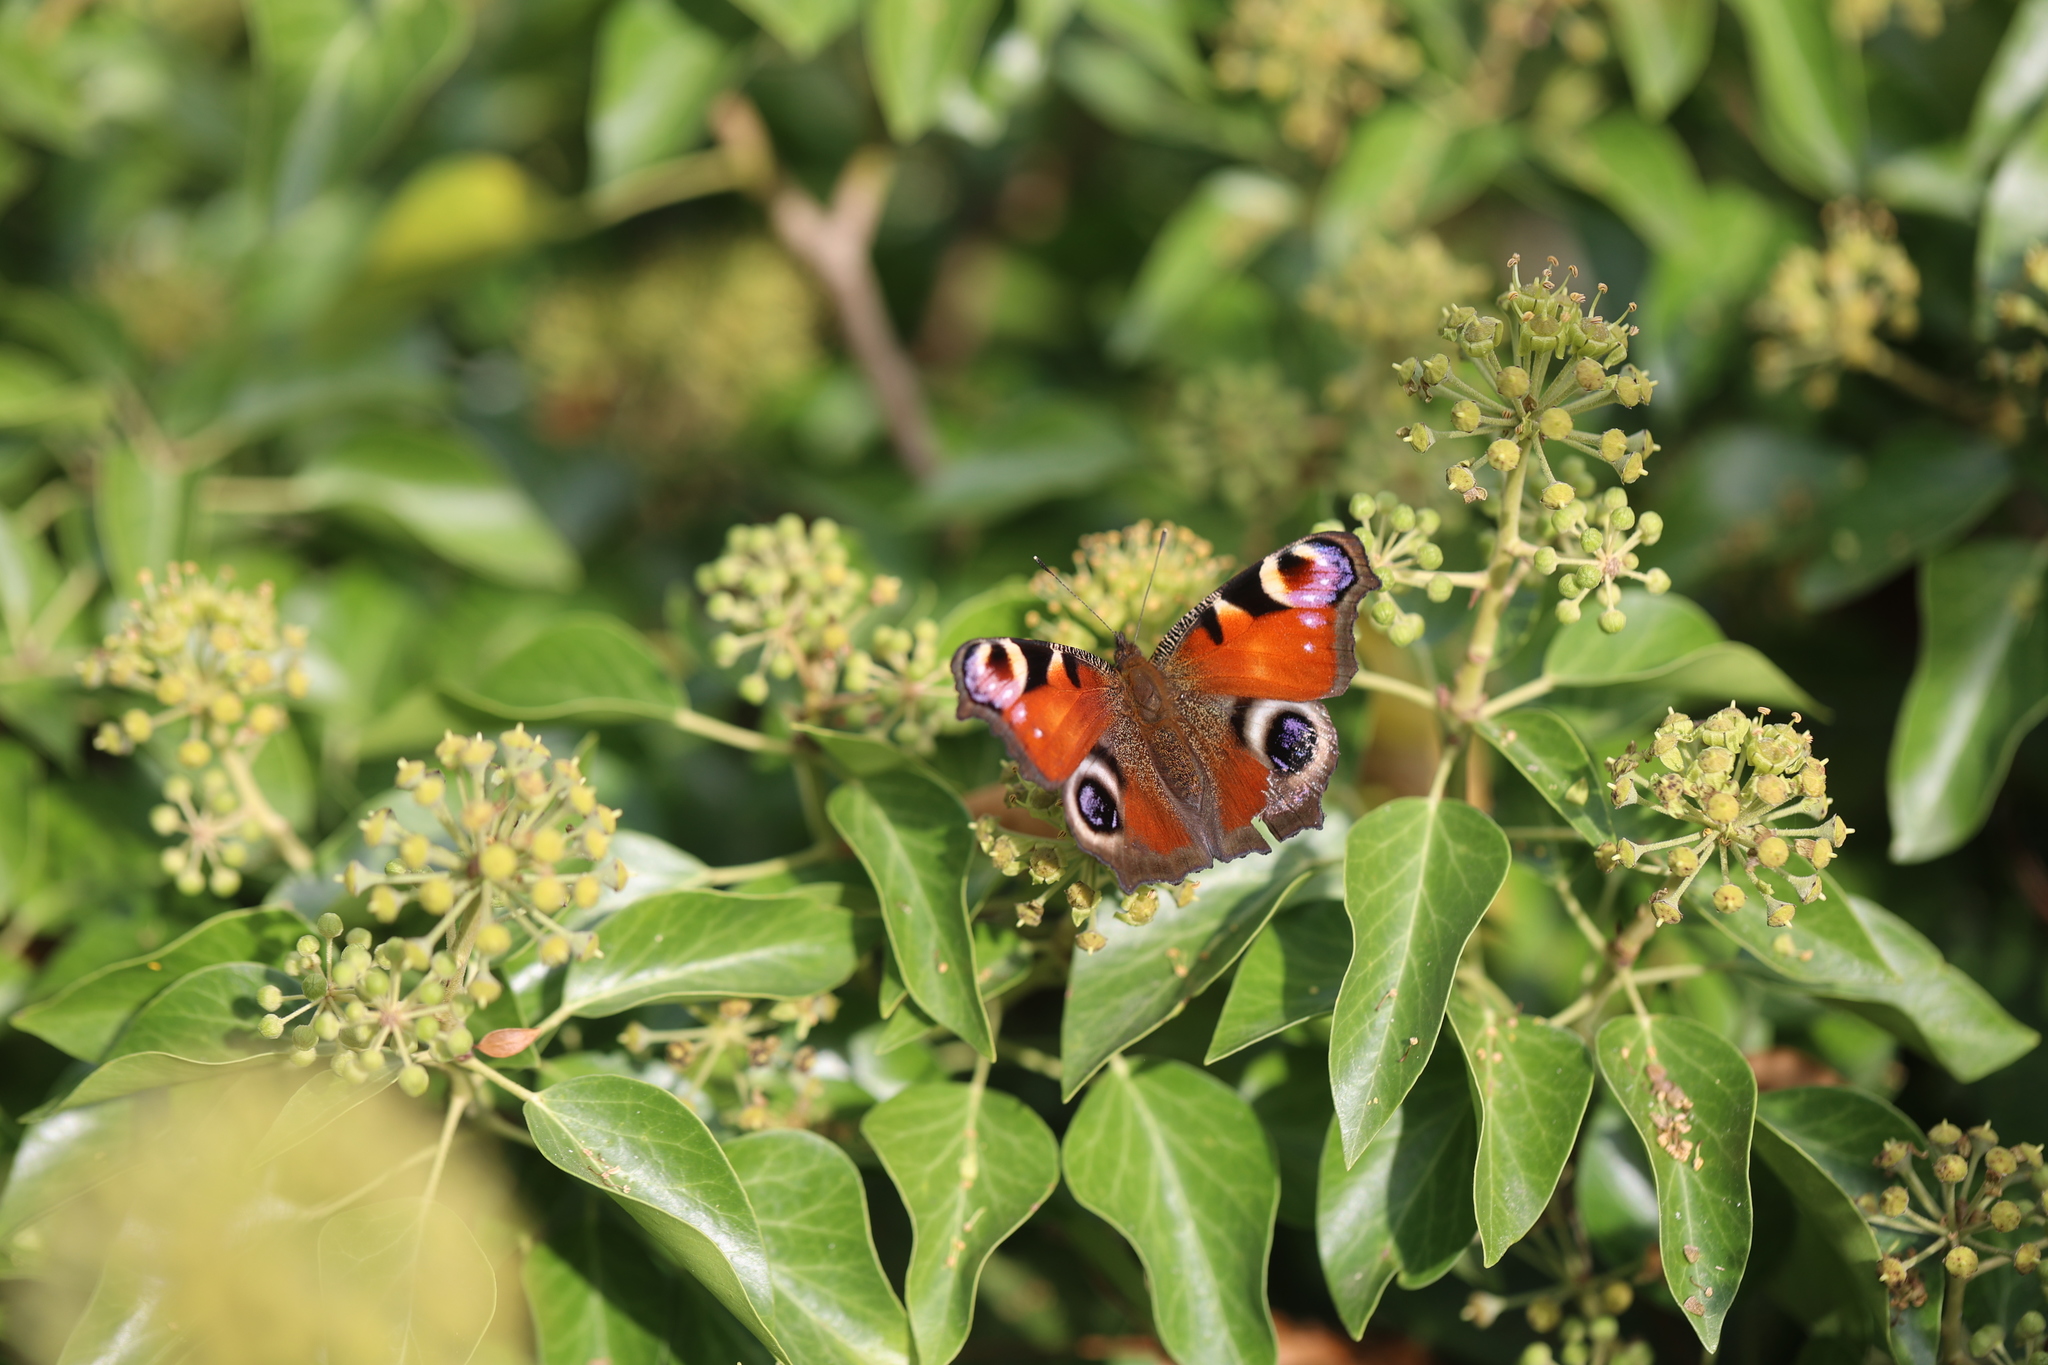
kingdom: Animalia
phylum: Arthropoda
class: Insecta
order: Lepidoptera
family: Nymphalidae
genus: Aglais
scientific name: Aglais io
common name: Peacock
